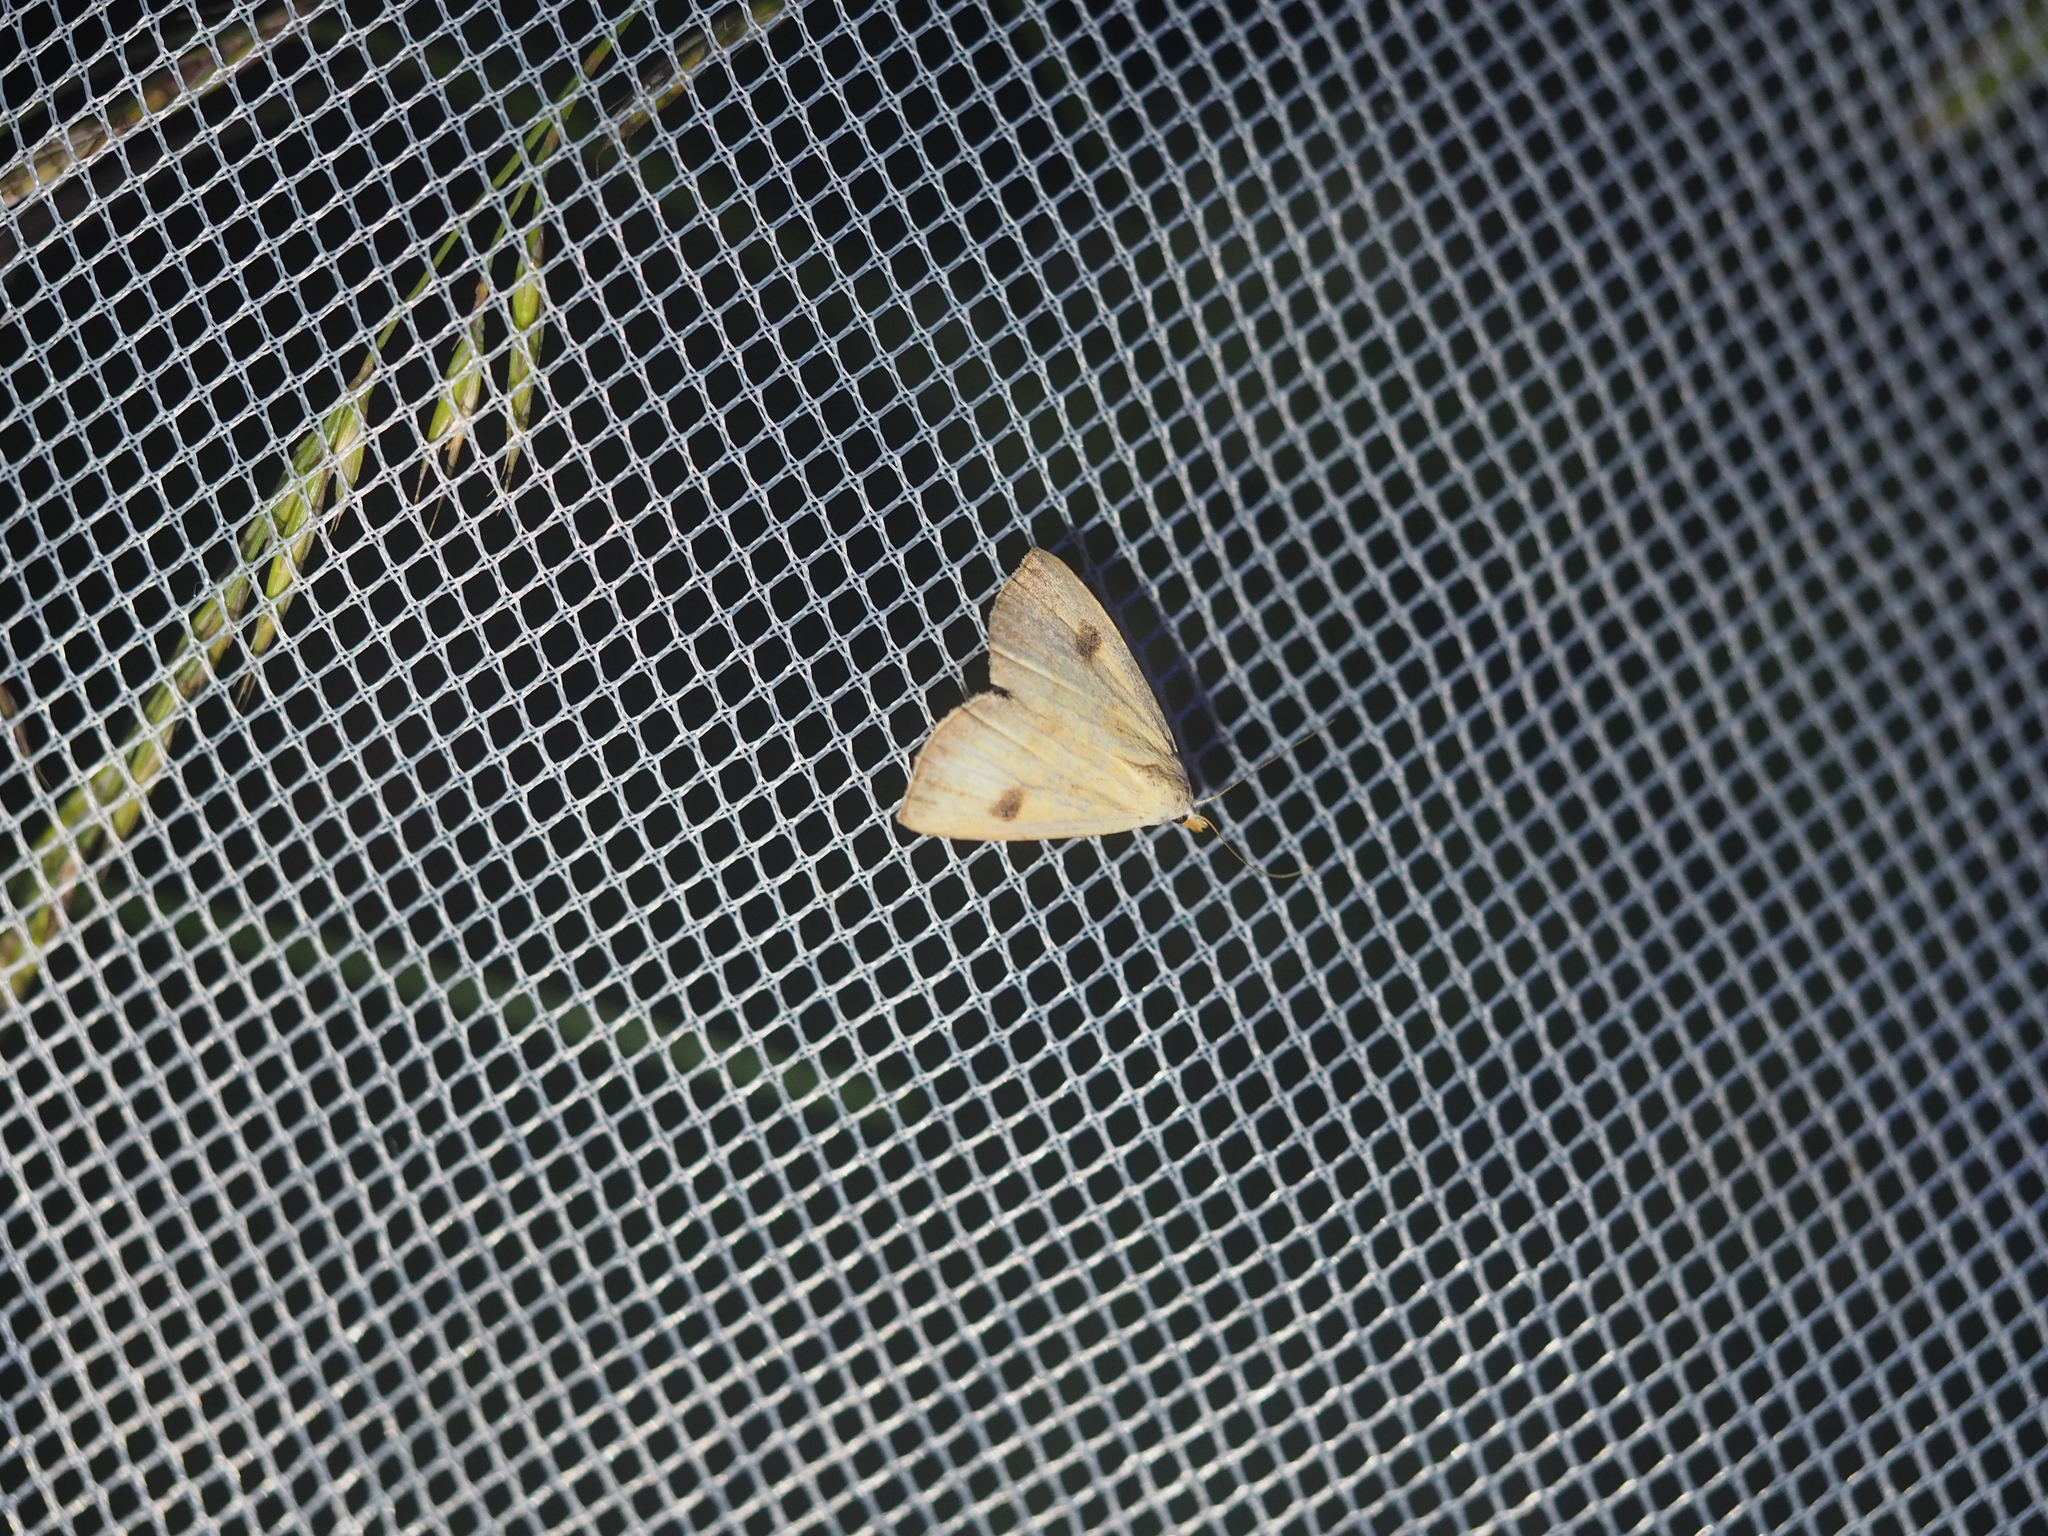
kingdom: Animalia
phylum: Arthropoda
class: Insecta
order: Lepidoptera
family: Erebidae
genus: Rivula
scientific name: Rivula sericealis
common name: Straw dot
